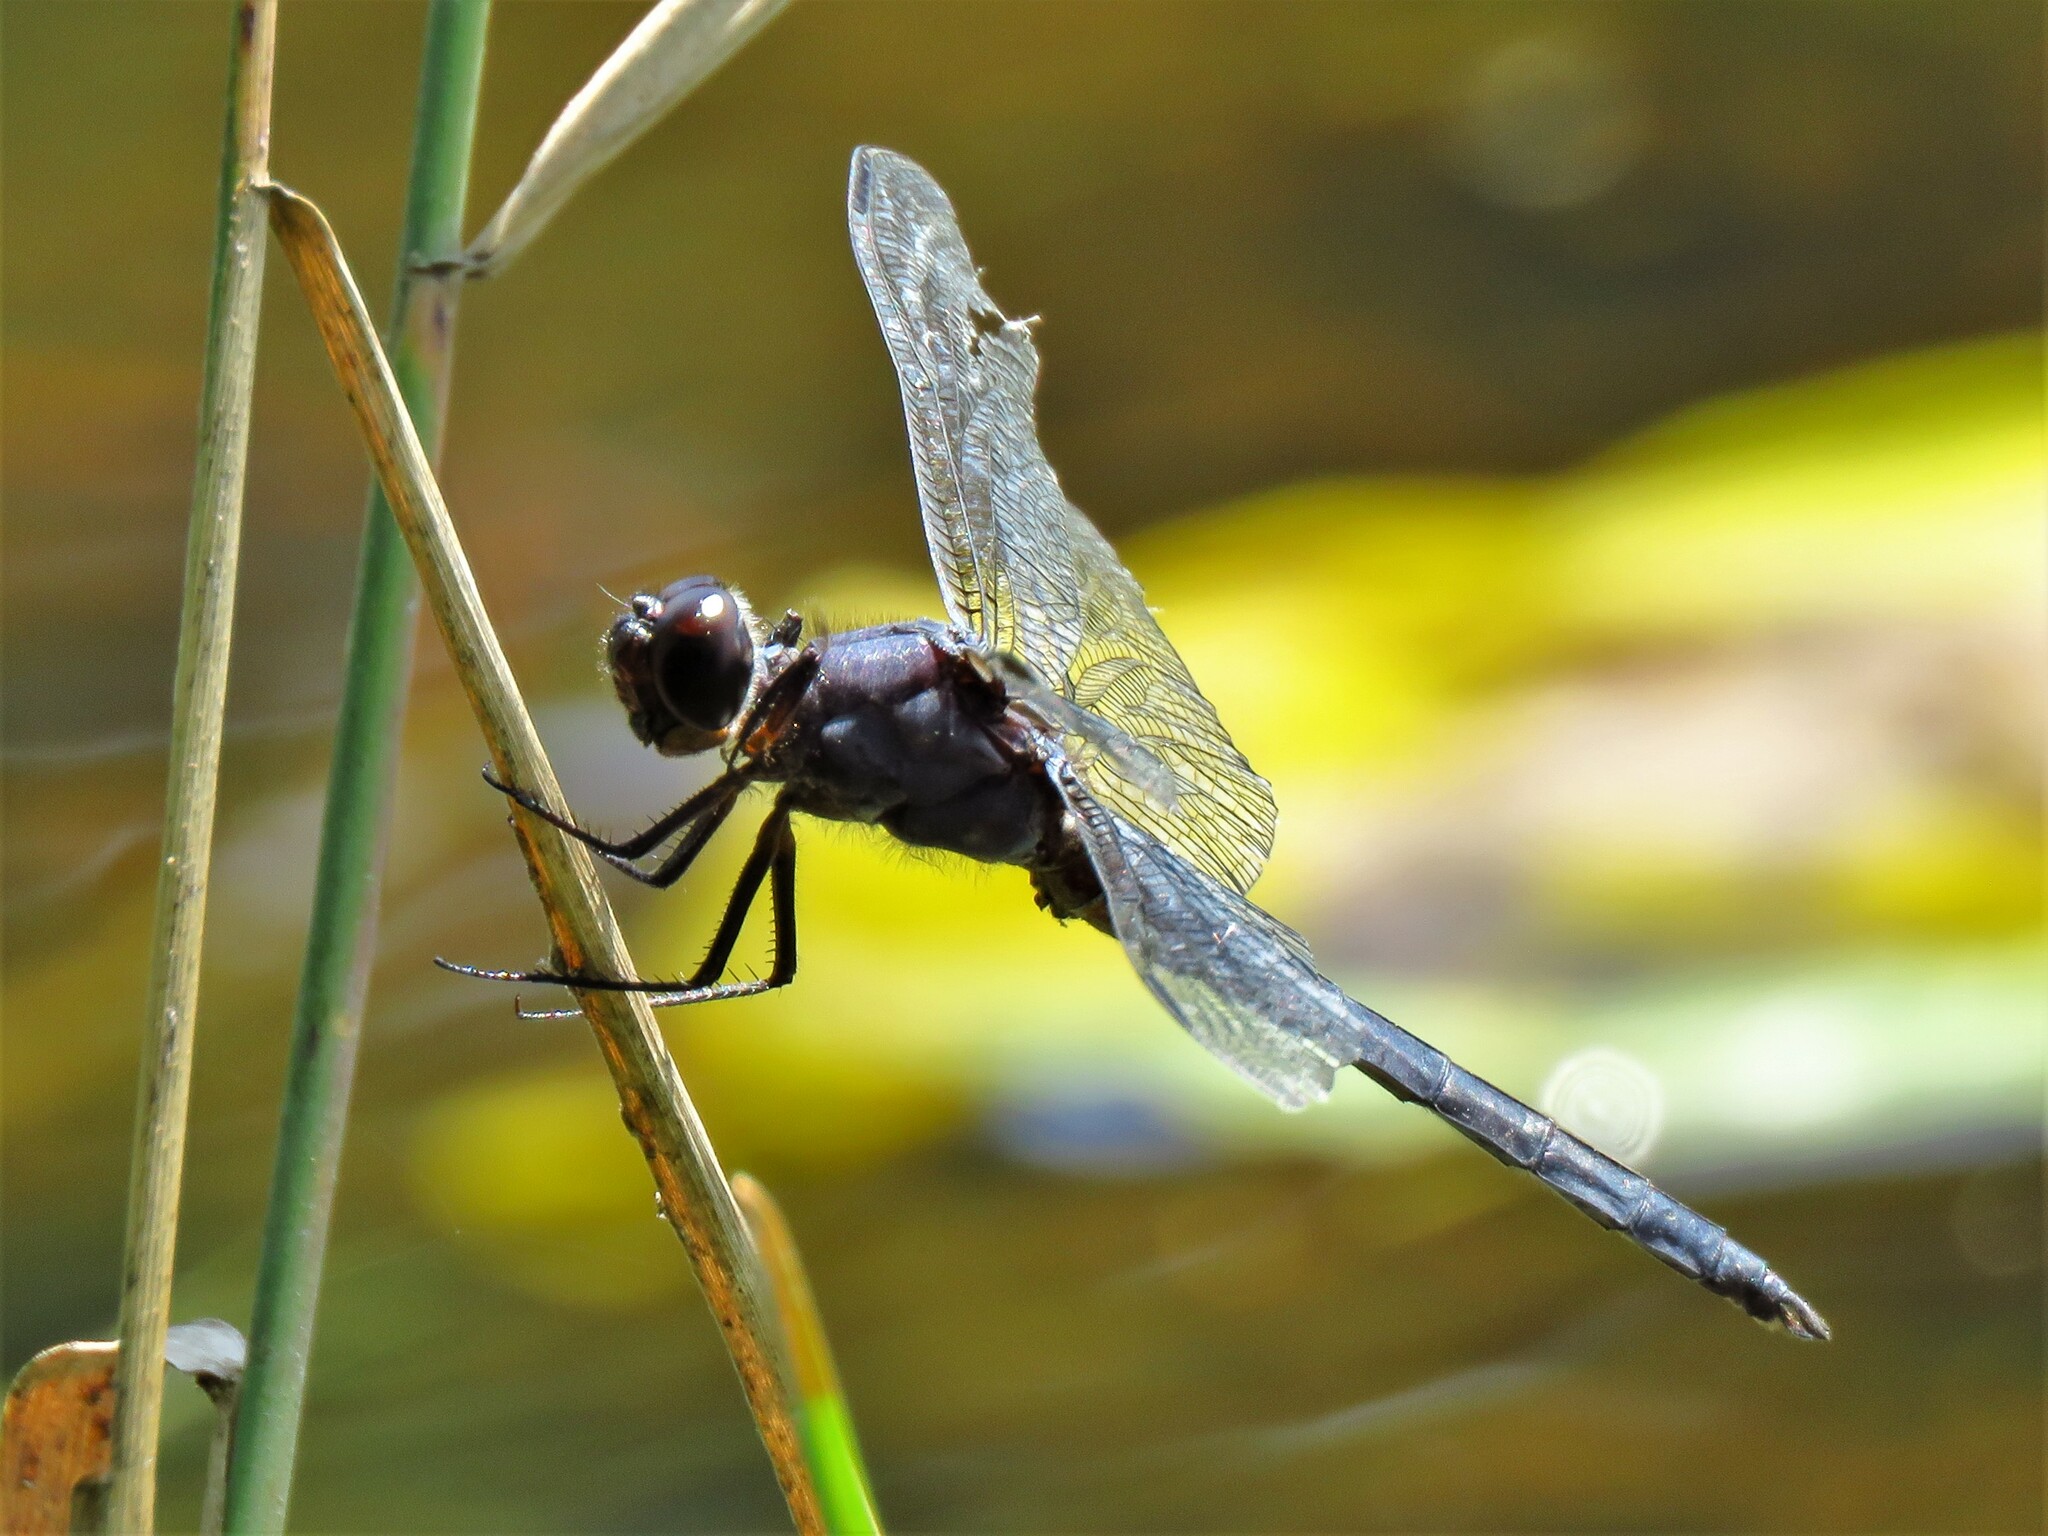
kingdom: Animalia
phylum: Arthropoda
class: Insecta
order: Odonata
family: Libellulidae
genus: Libellula
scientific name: Libellula incesta
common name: Slaty skimmer
